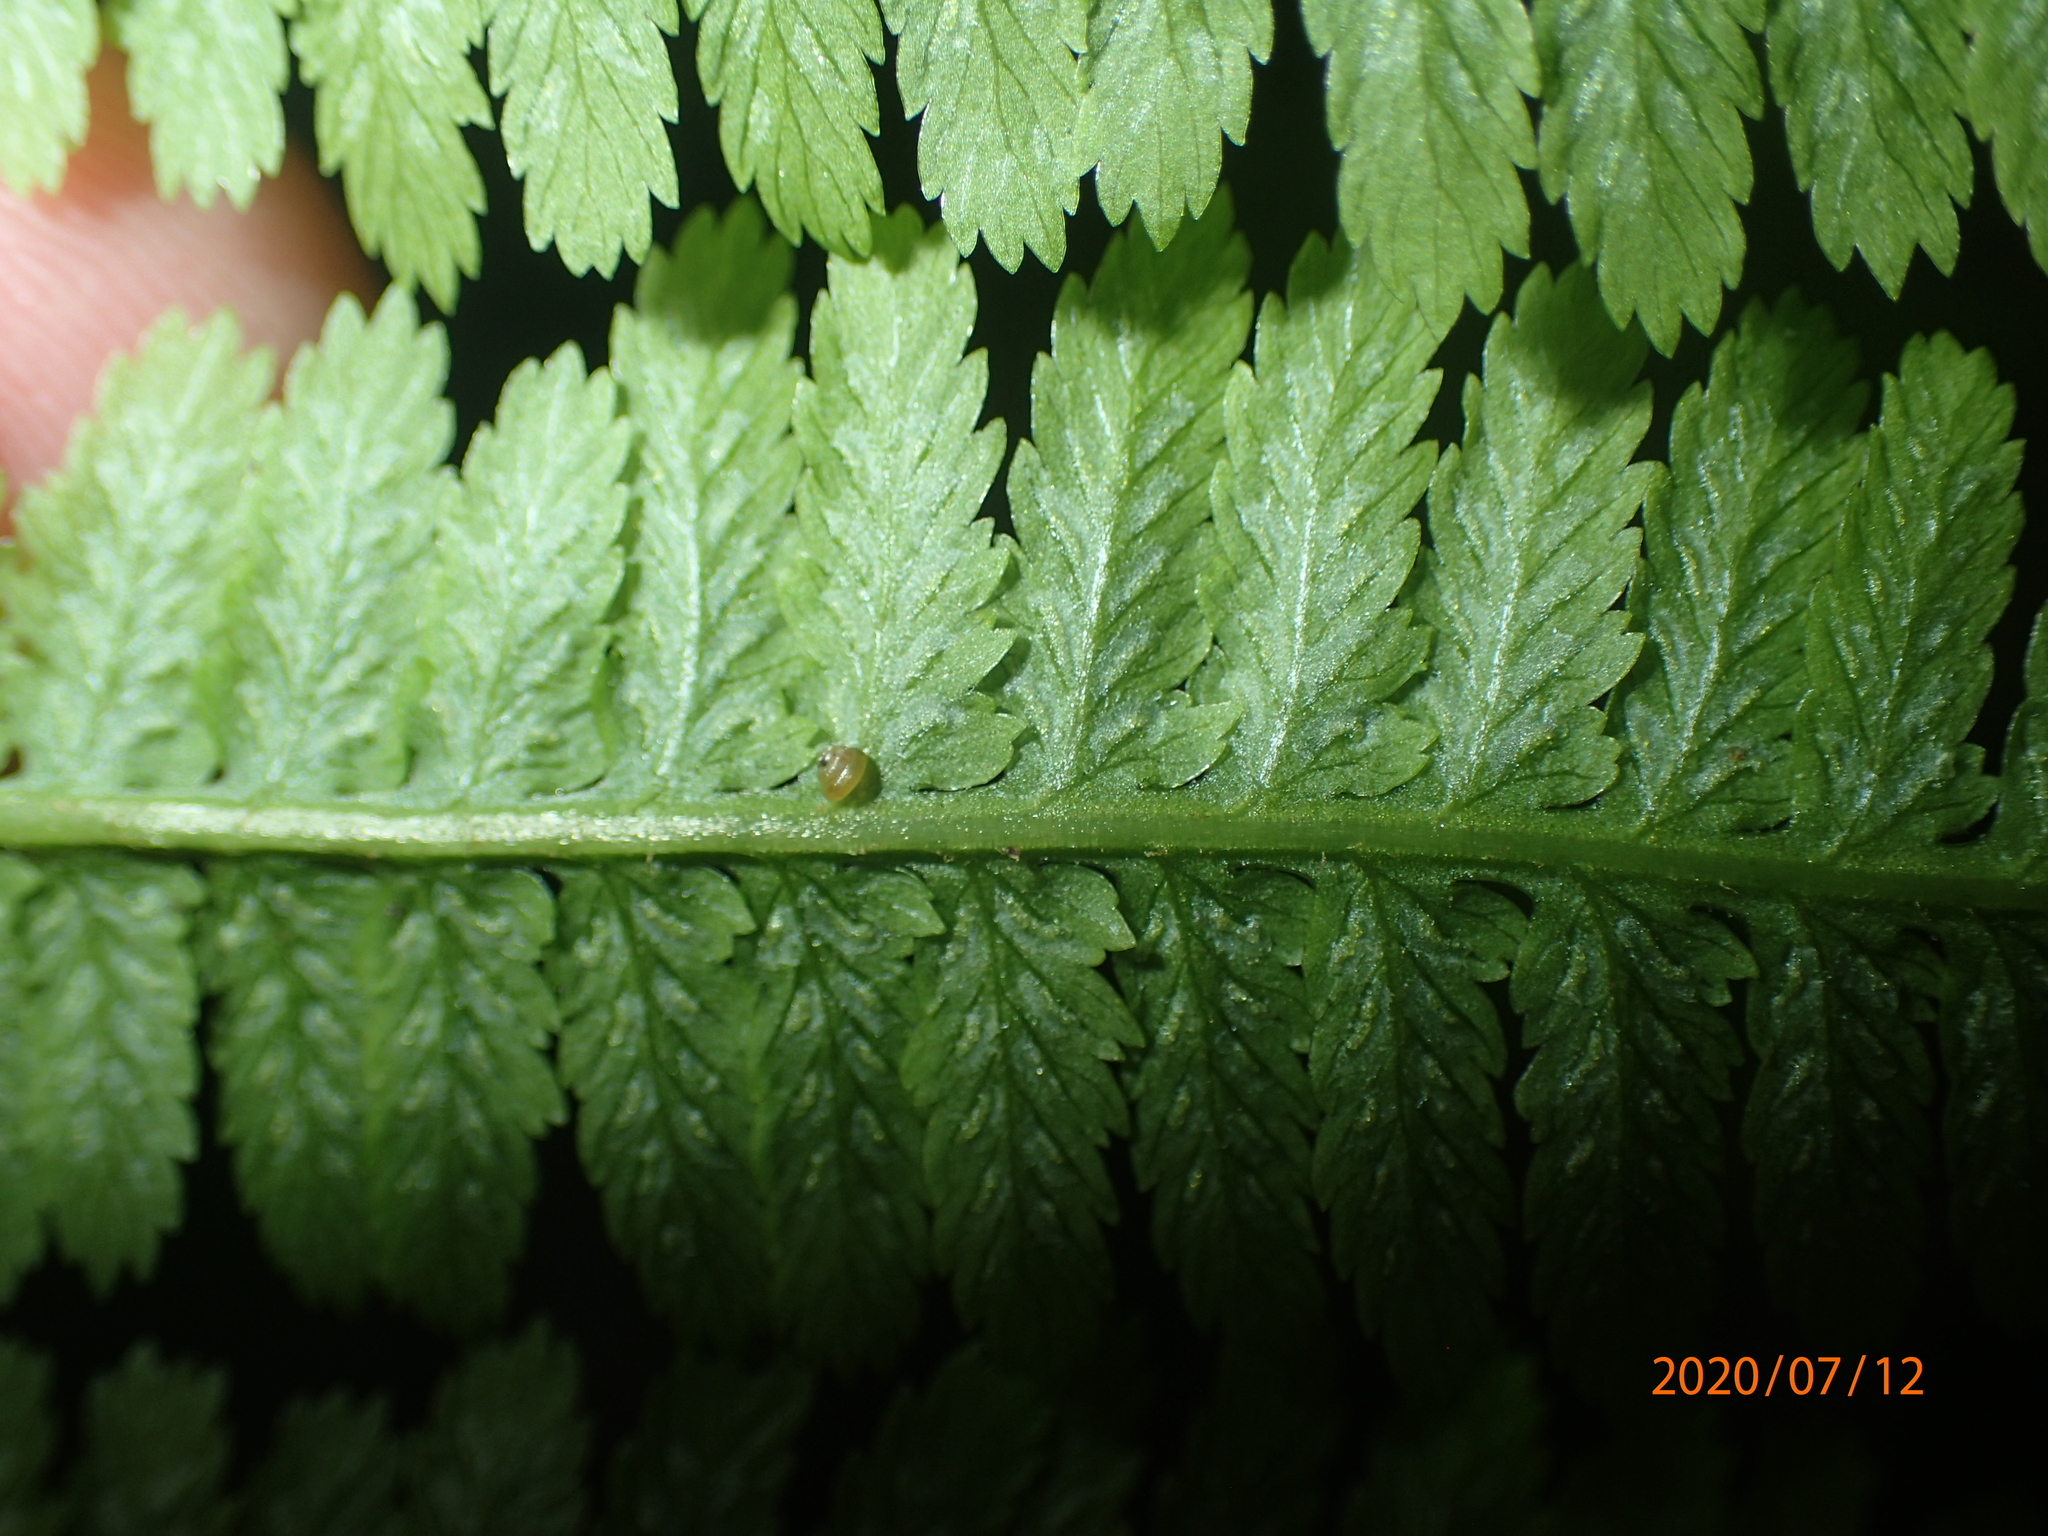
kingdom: Plantae
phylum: Tracheophyta
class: Polypodiopsida
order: Polypodiales
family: Athyriaceae
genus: Deparia
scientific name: Deparia acrostichoides
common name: Silver false spleenwort
